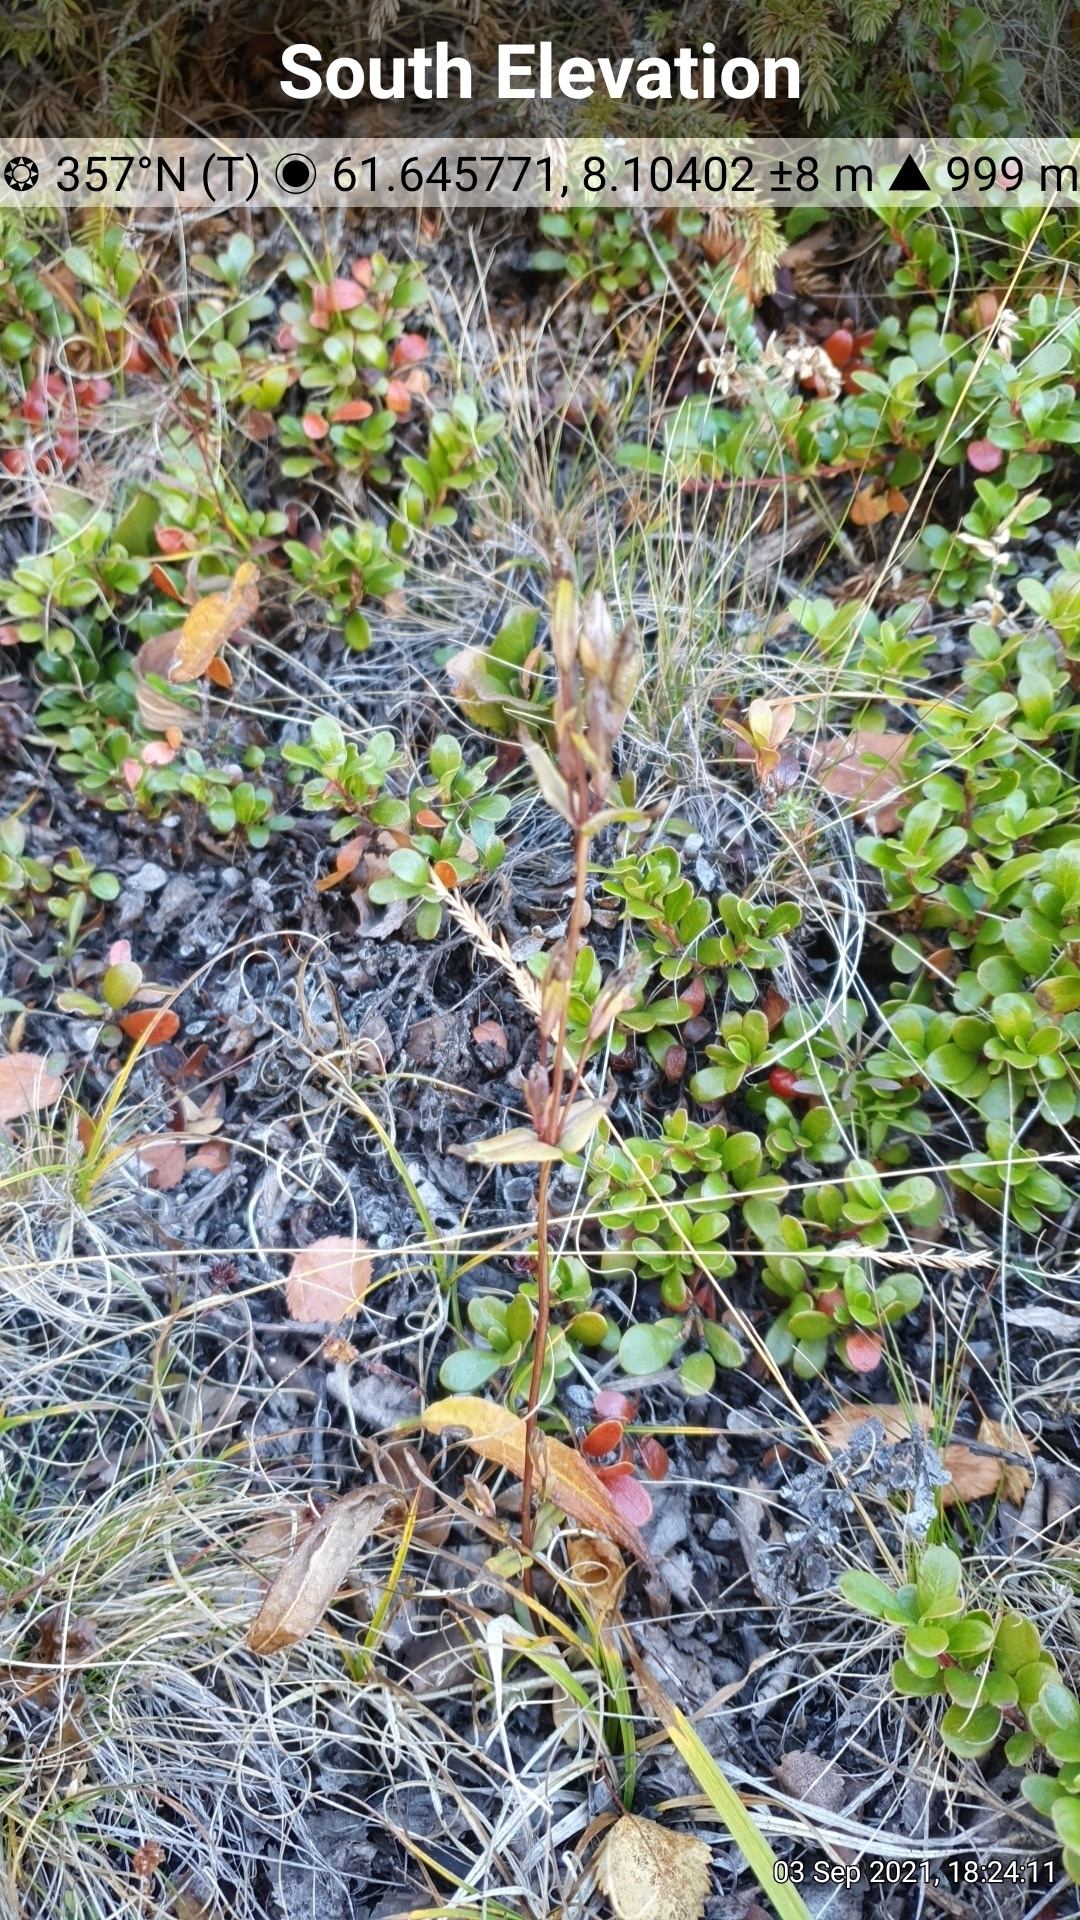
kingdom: Plantae
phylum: Tracheophyta
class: Magnoliopsida
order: Gentianales
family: Gentianaceae
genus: Gentianella
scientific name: Gentianella amarella
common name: Autumn gentian
